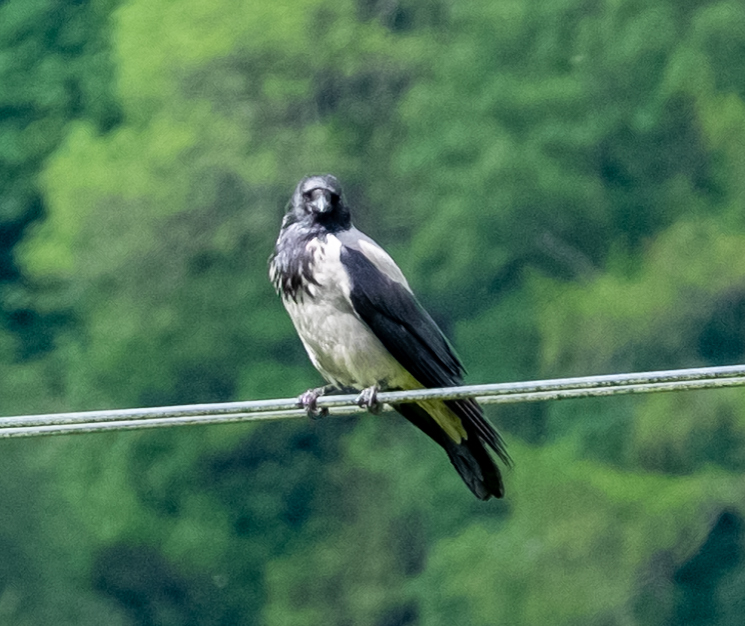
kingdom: Animalia
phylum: Chordata
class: Aves
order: Passeriformes
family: Corvidae
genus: Corvus
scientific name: Corvus cornix
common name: Hooded crow
